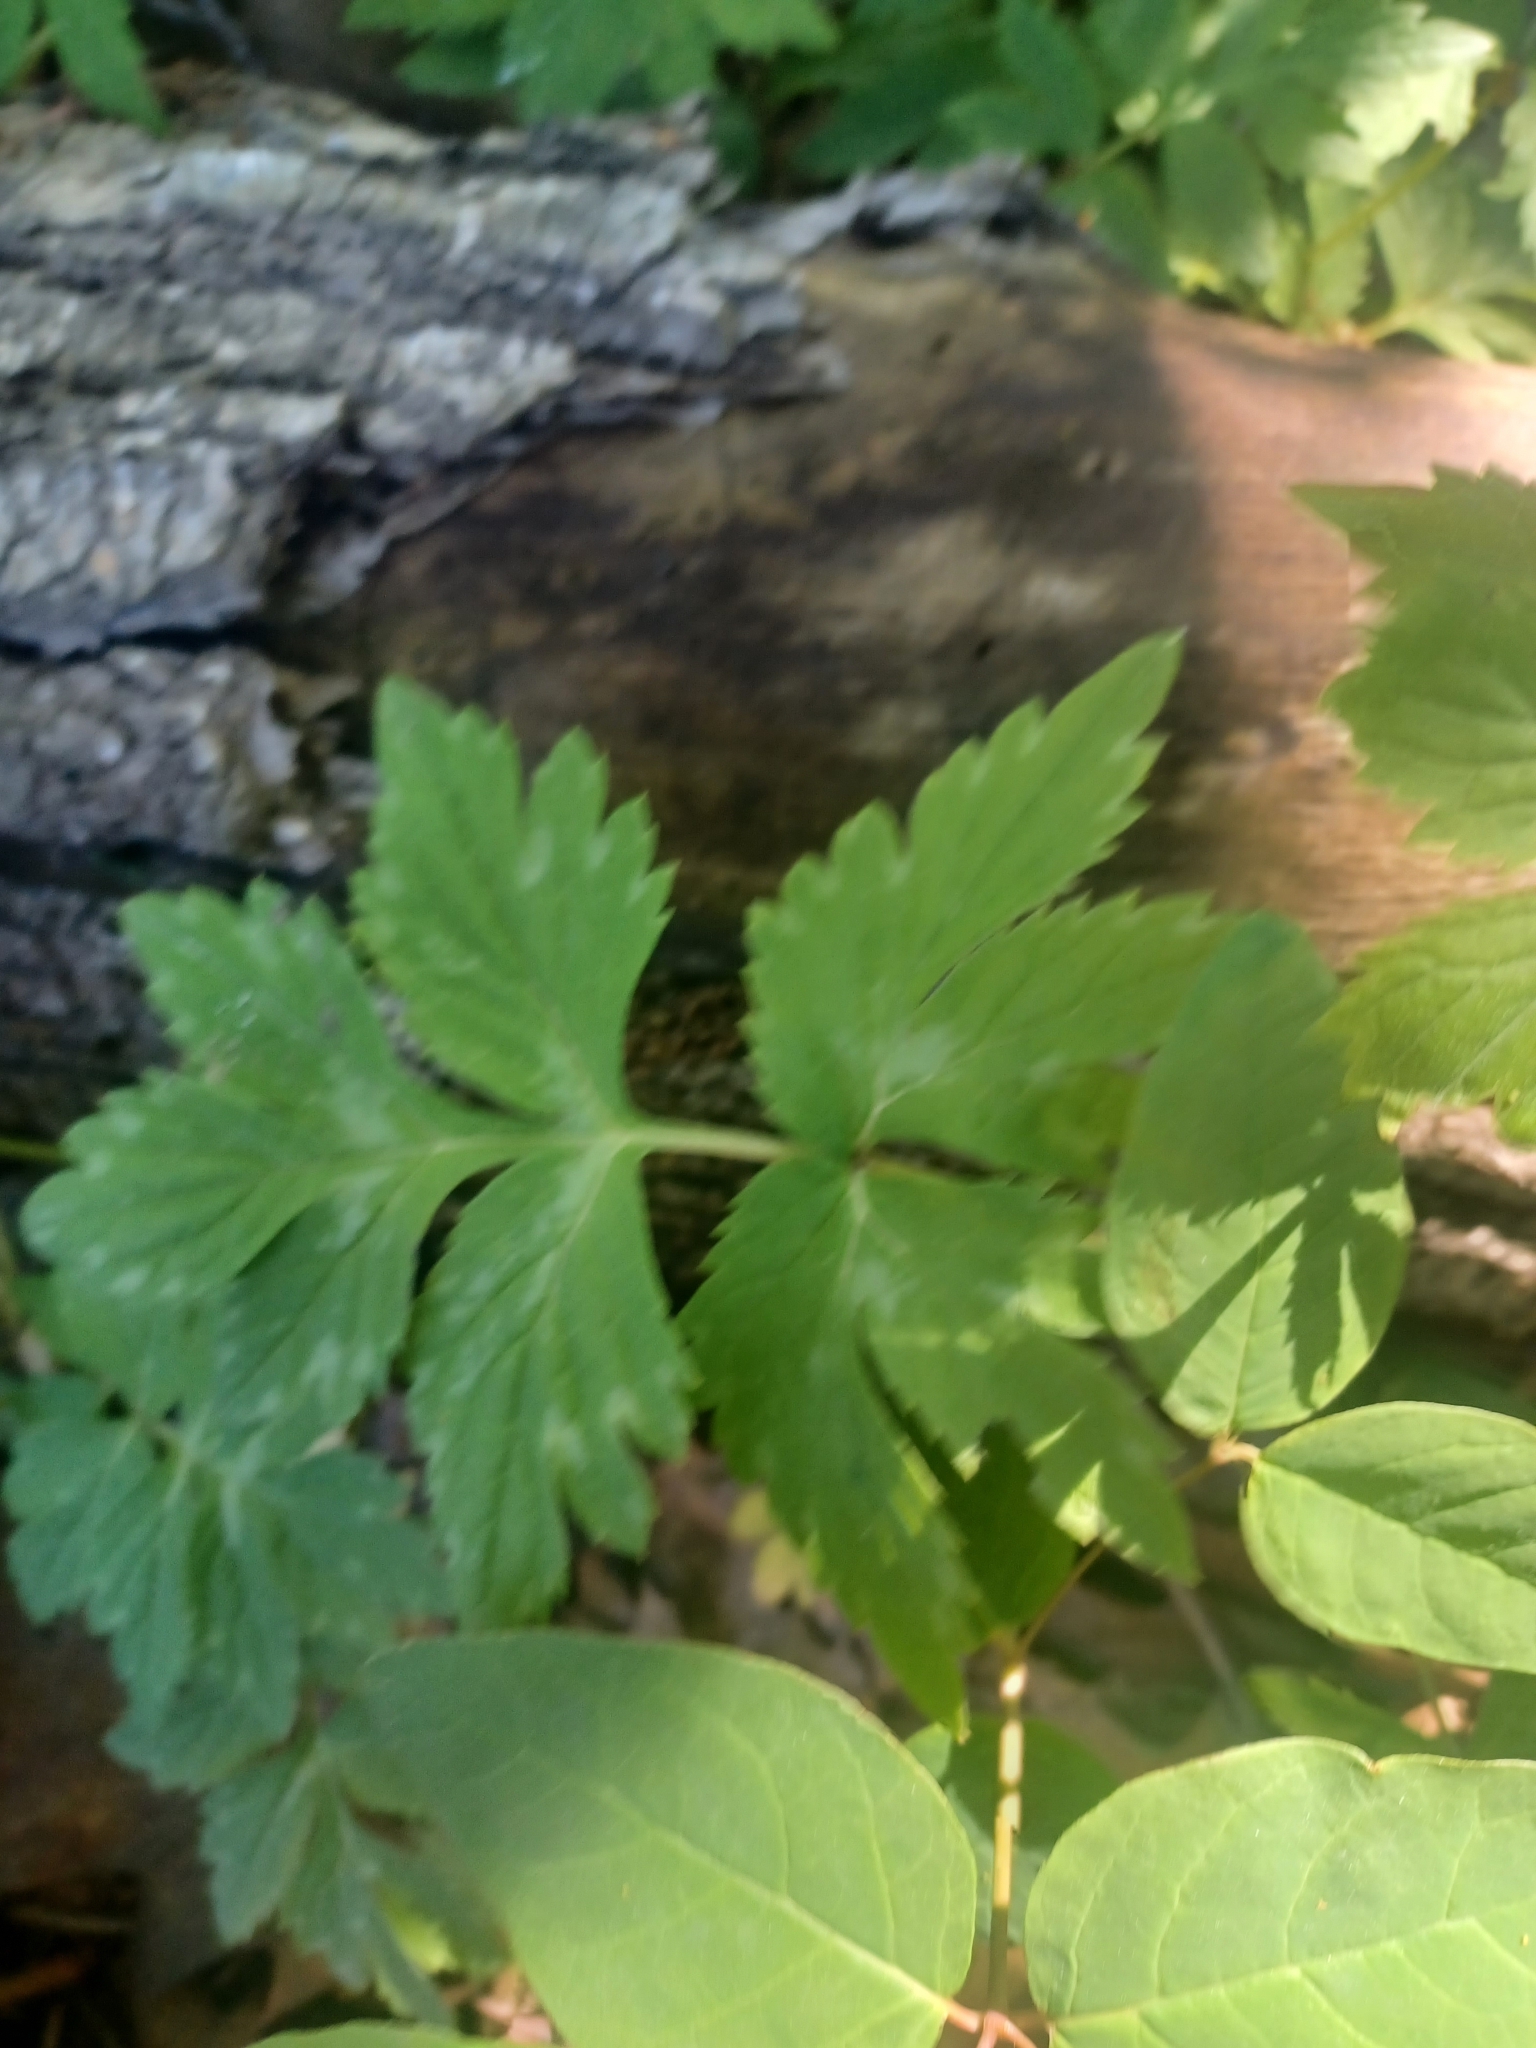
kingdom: Plantae
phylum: Tracheophyta
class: Magnoliopsida
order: Boraginales
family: Hydrophyllaceae
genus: Hydrophyllum
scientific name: Hydrophyllum virginianum
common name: Virginia waterleaf
